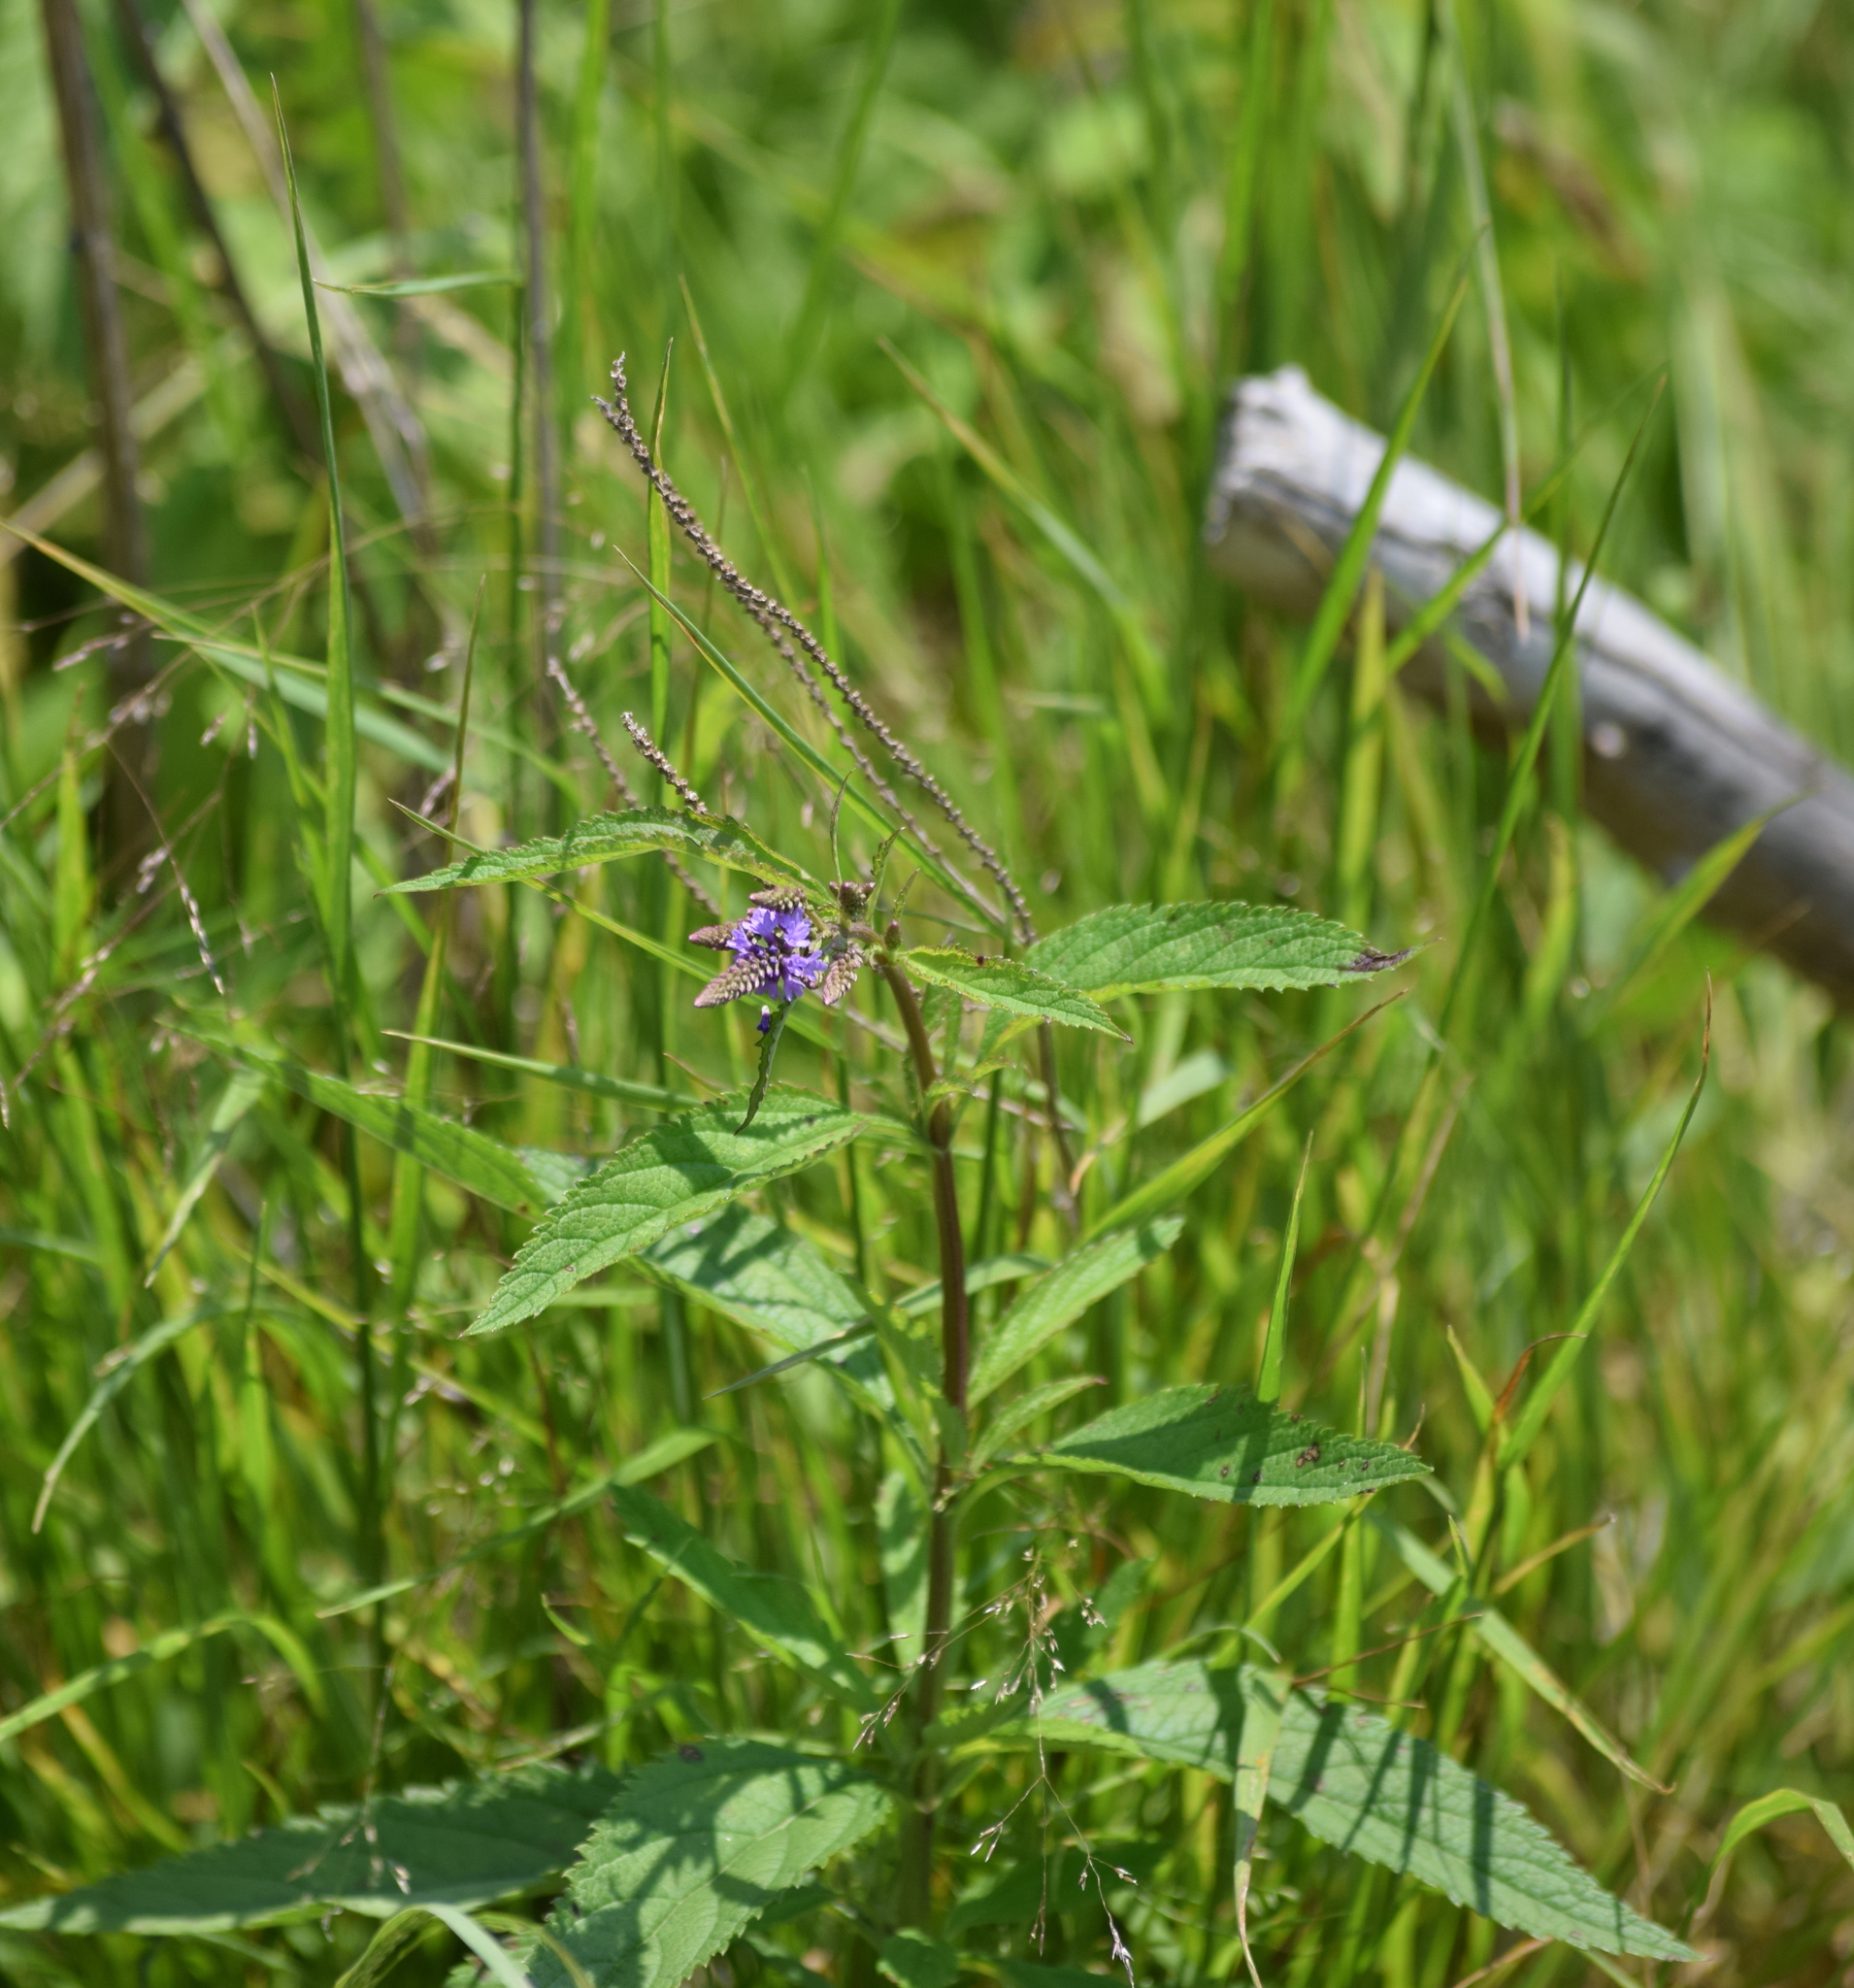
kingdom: Plantae
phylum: Tracheophyta
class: Magnoliopsida
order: Lamiales
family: Verbenaceae
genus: Verbena
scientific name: Verbena hastata
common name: American blue vervain
